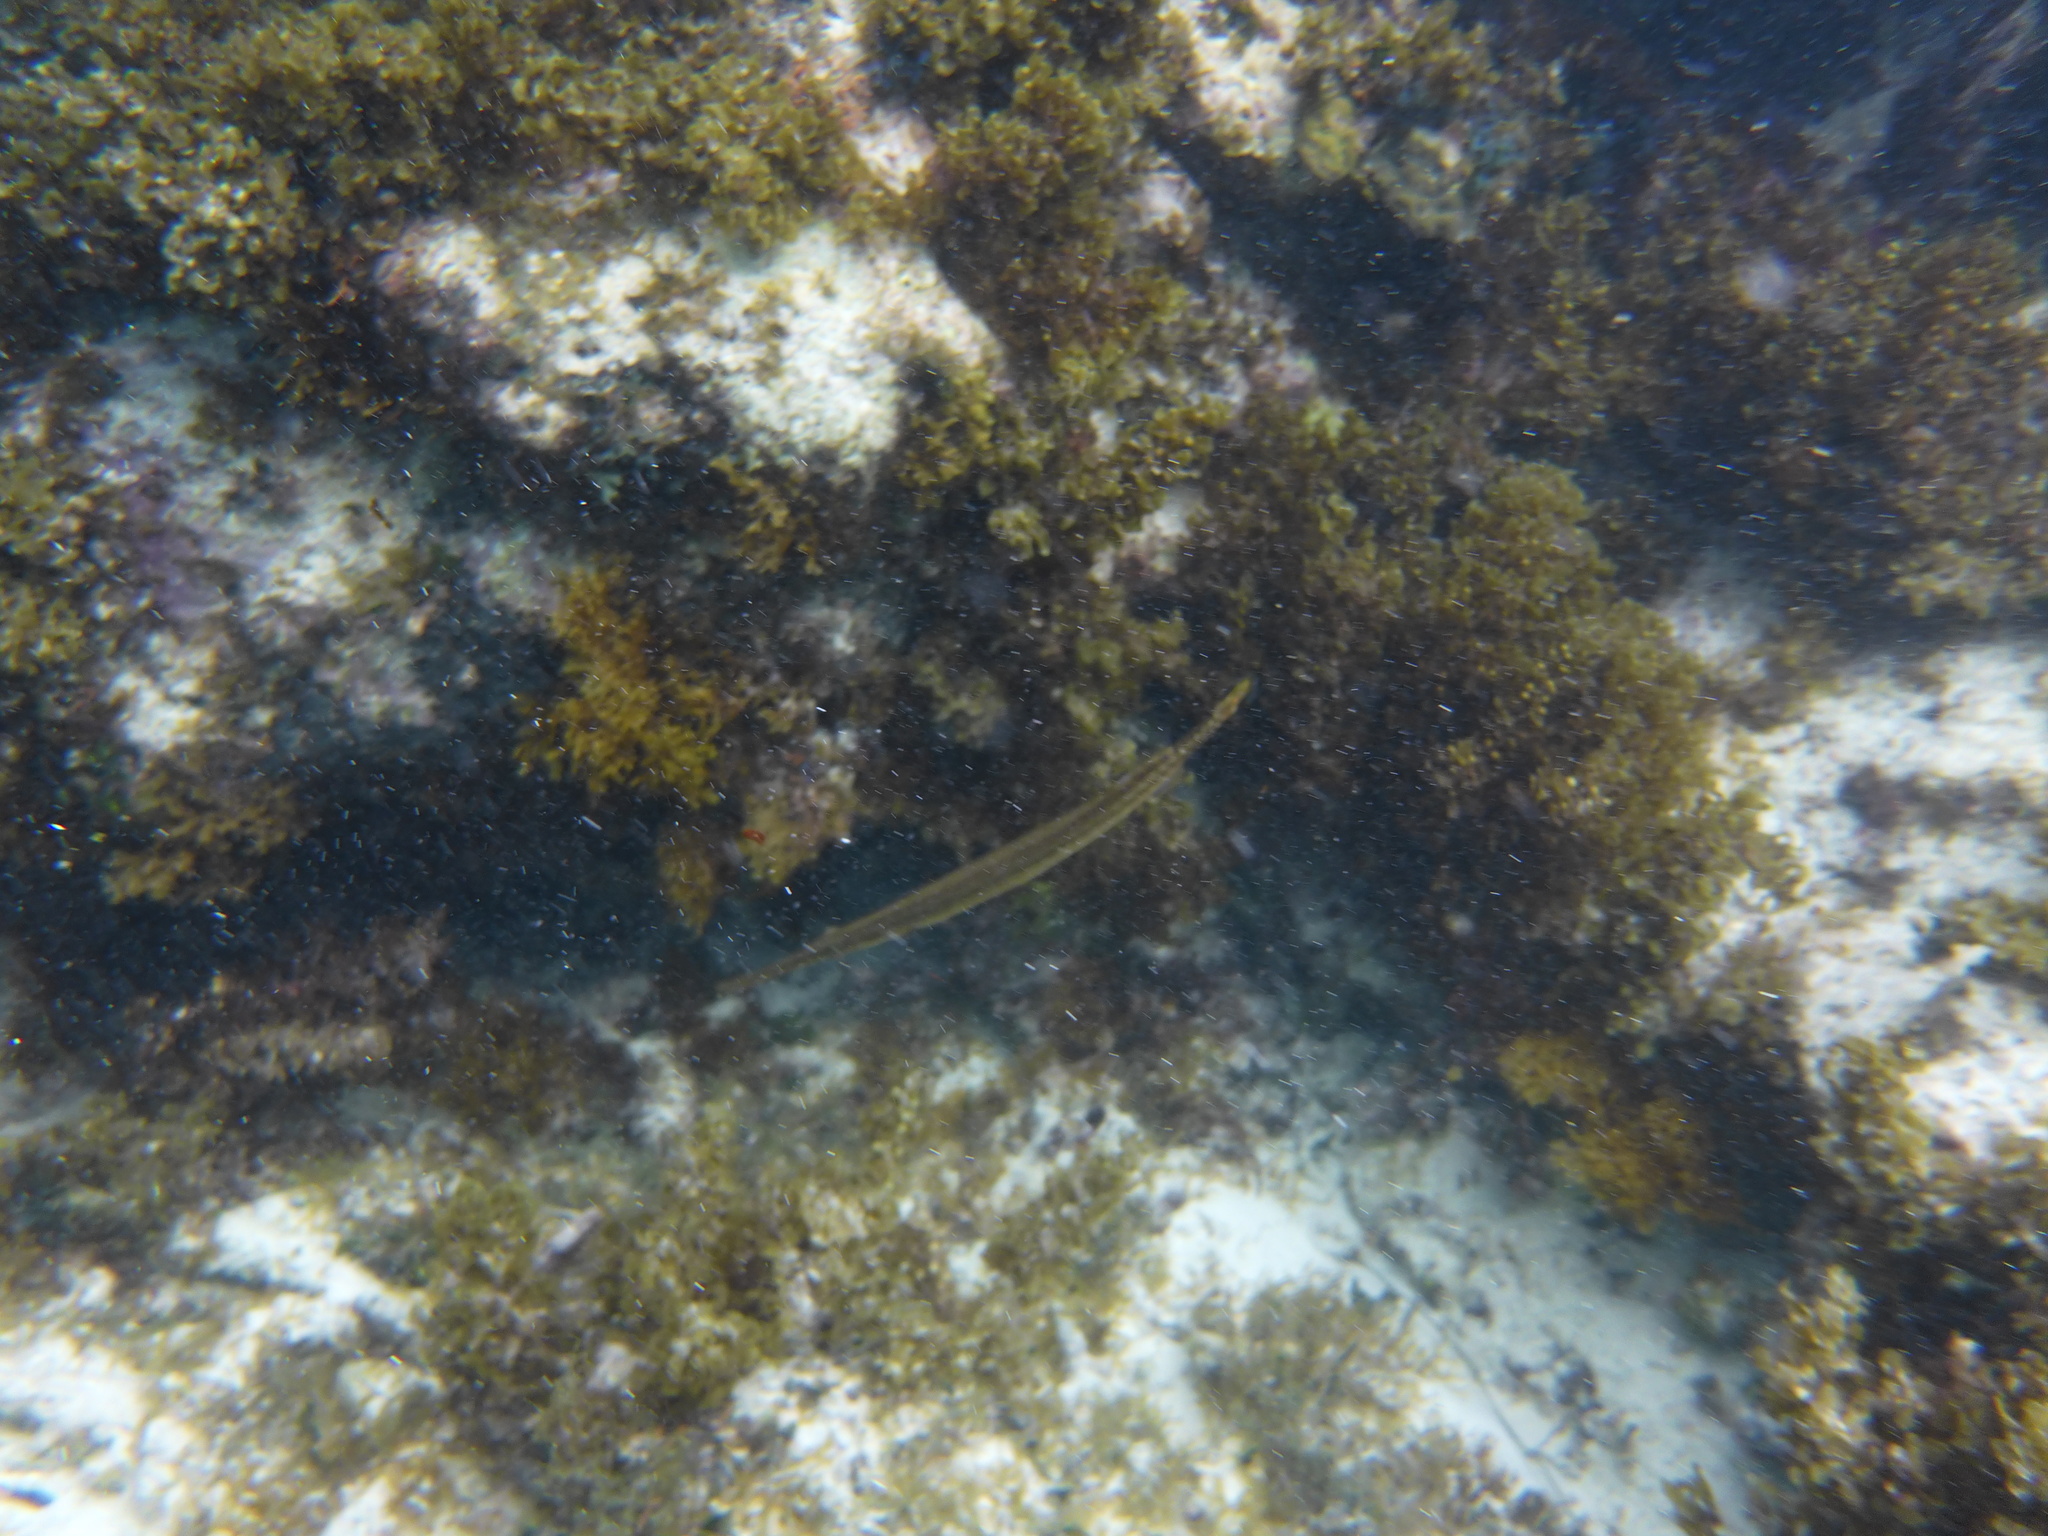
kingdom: Animalia
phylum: Chordata
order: Syngnathiformes
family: Aulostomidae
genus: Aulostomus
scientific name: Aulostomus maculatus
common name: West atlantic trumpetfish
